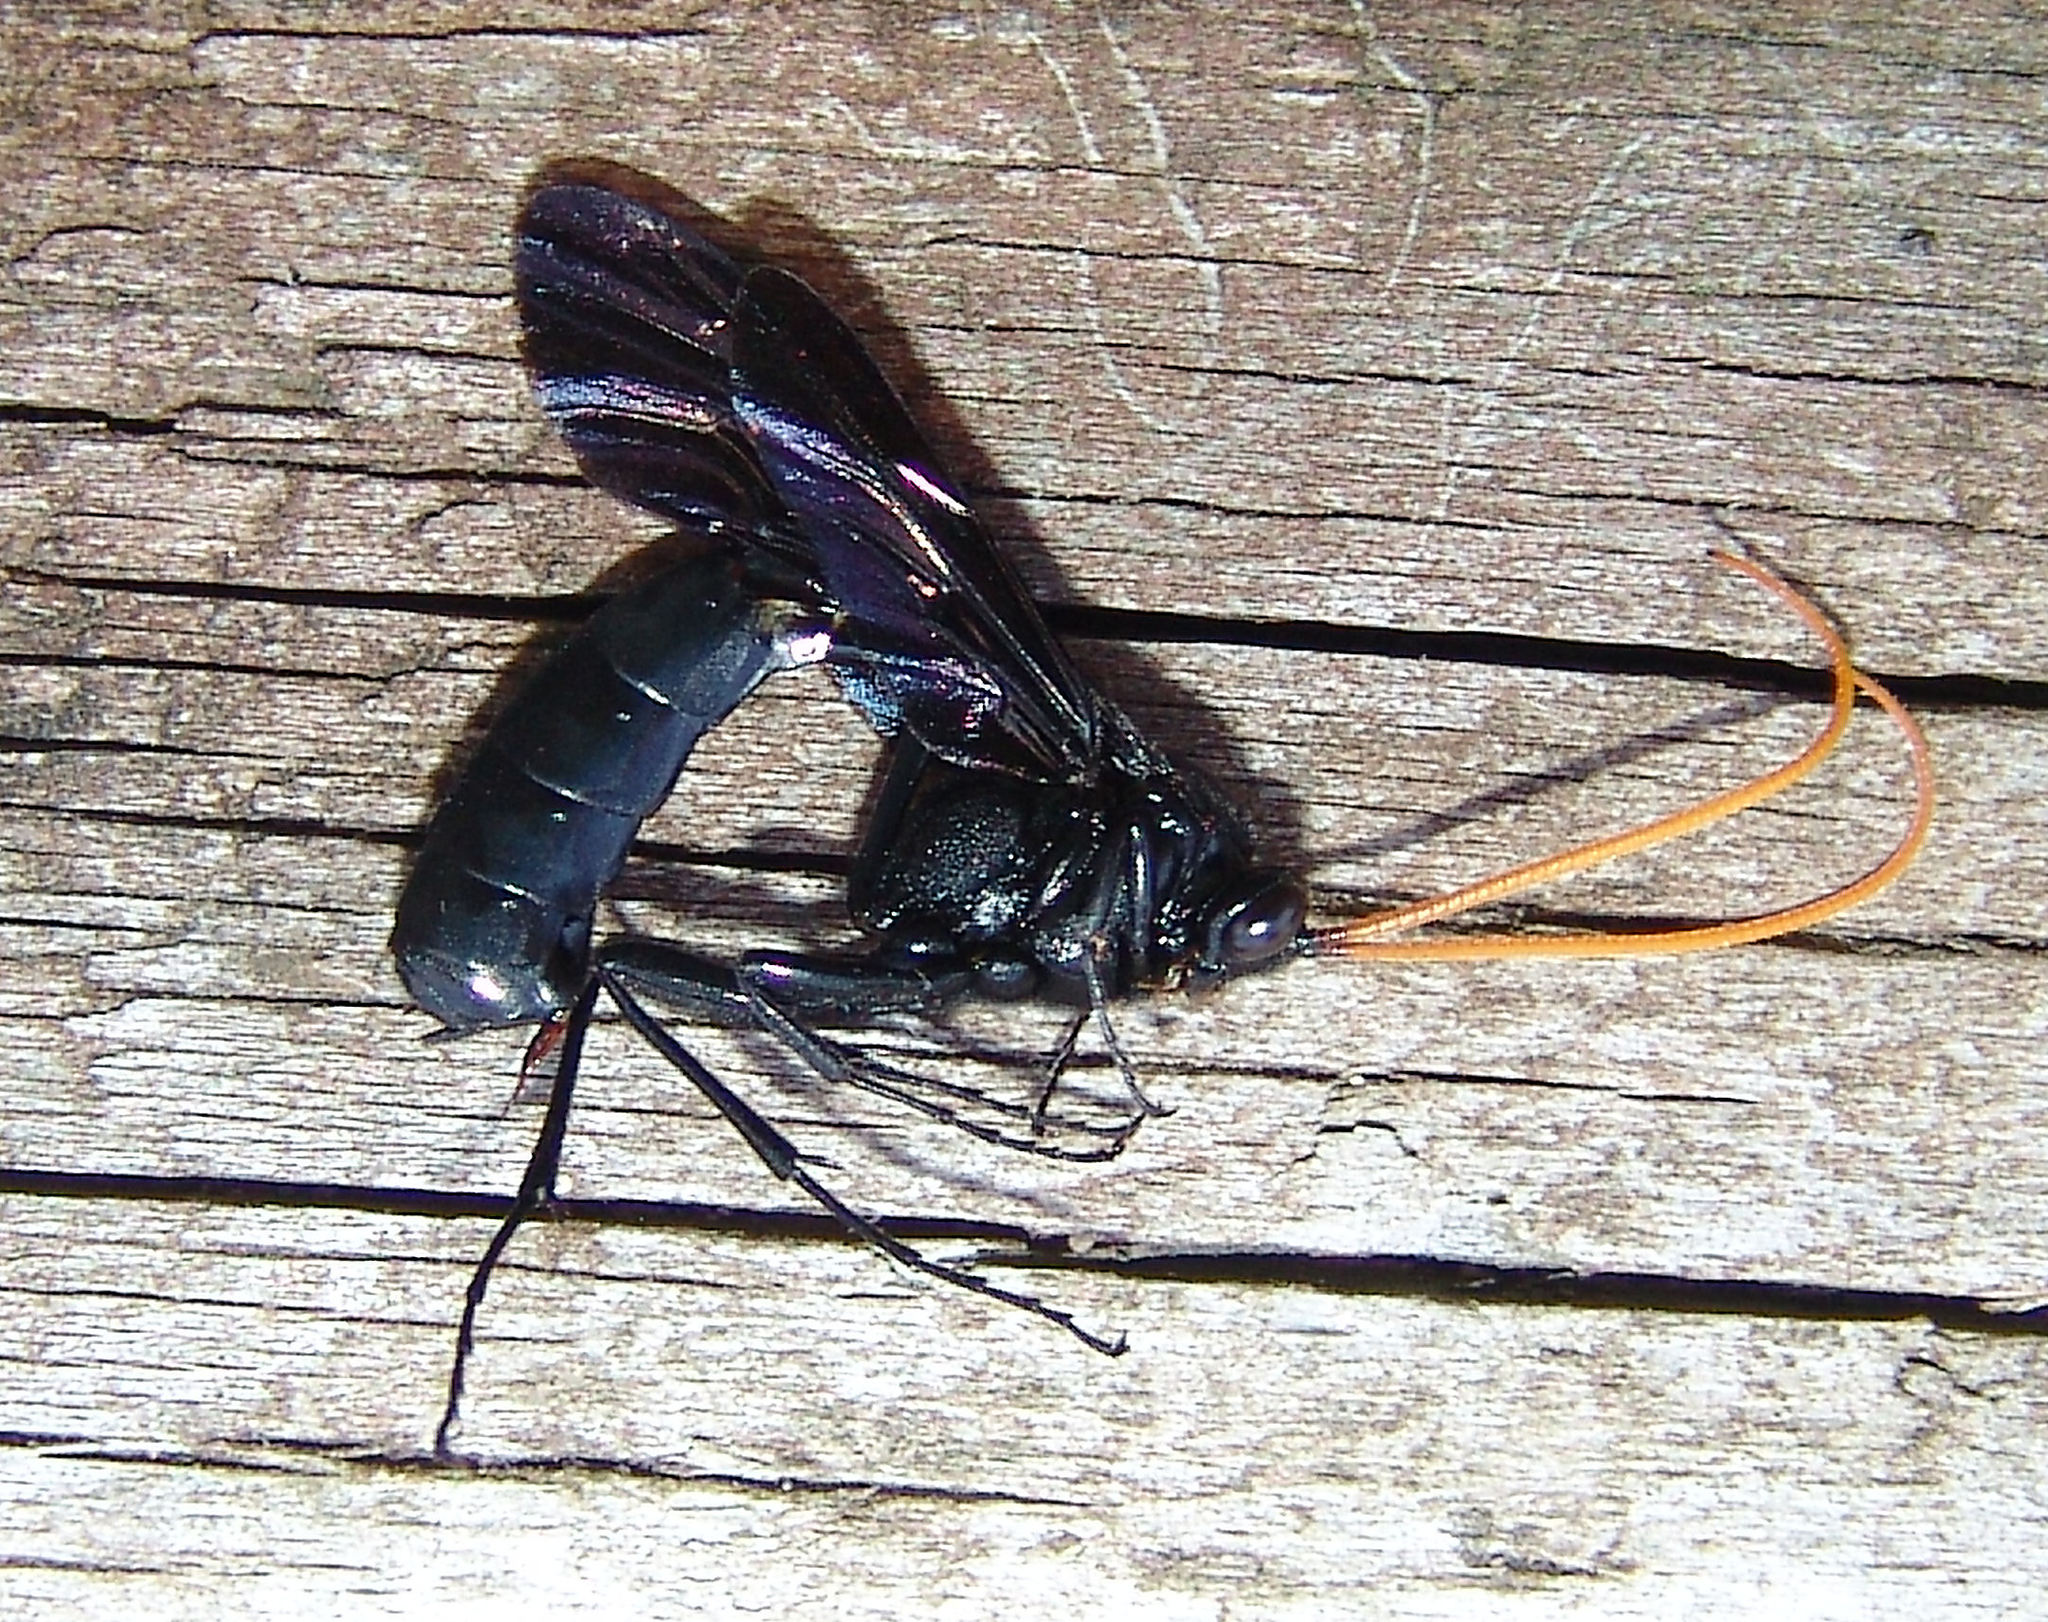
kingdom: Animalia
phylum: Arthropoda
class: Insecta
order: Hymenoptera
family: Ichneumonidae
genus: Thyreodon
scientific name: Thyreodon atricolor
